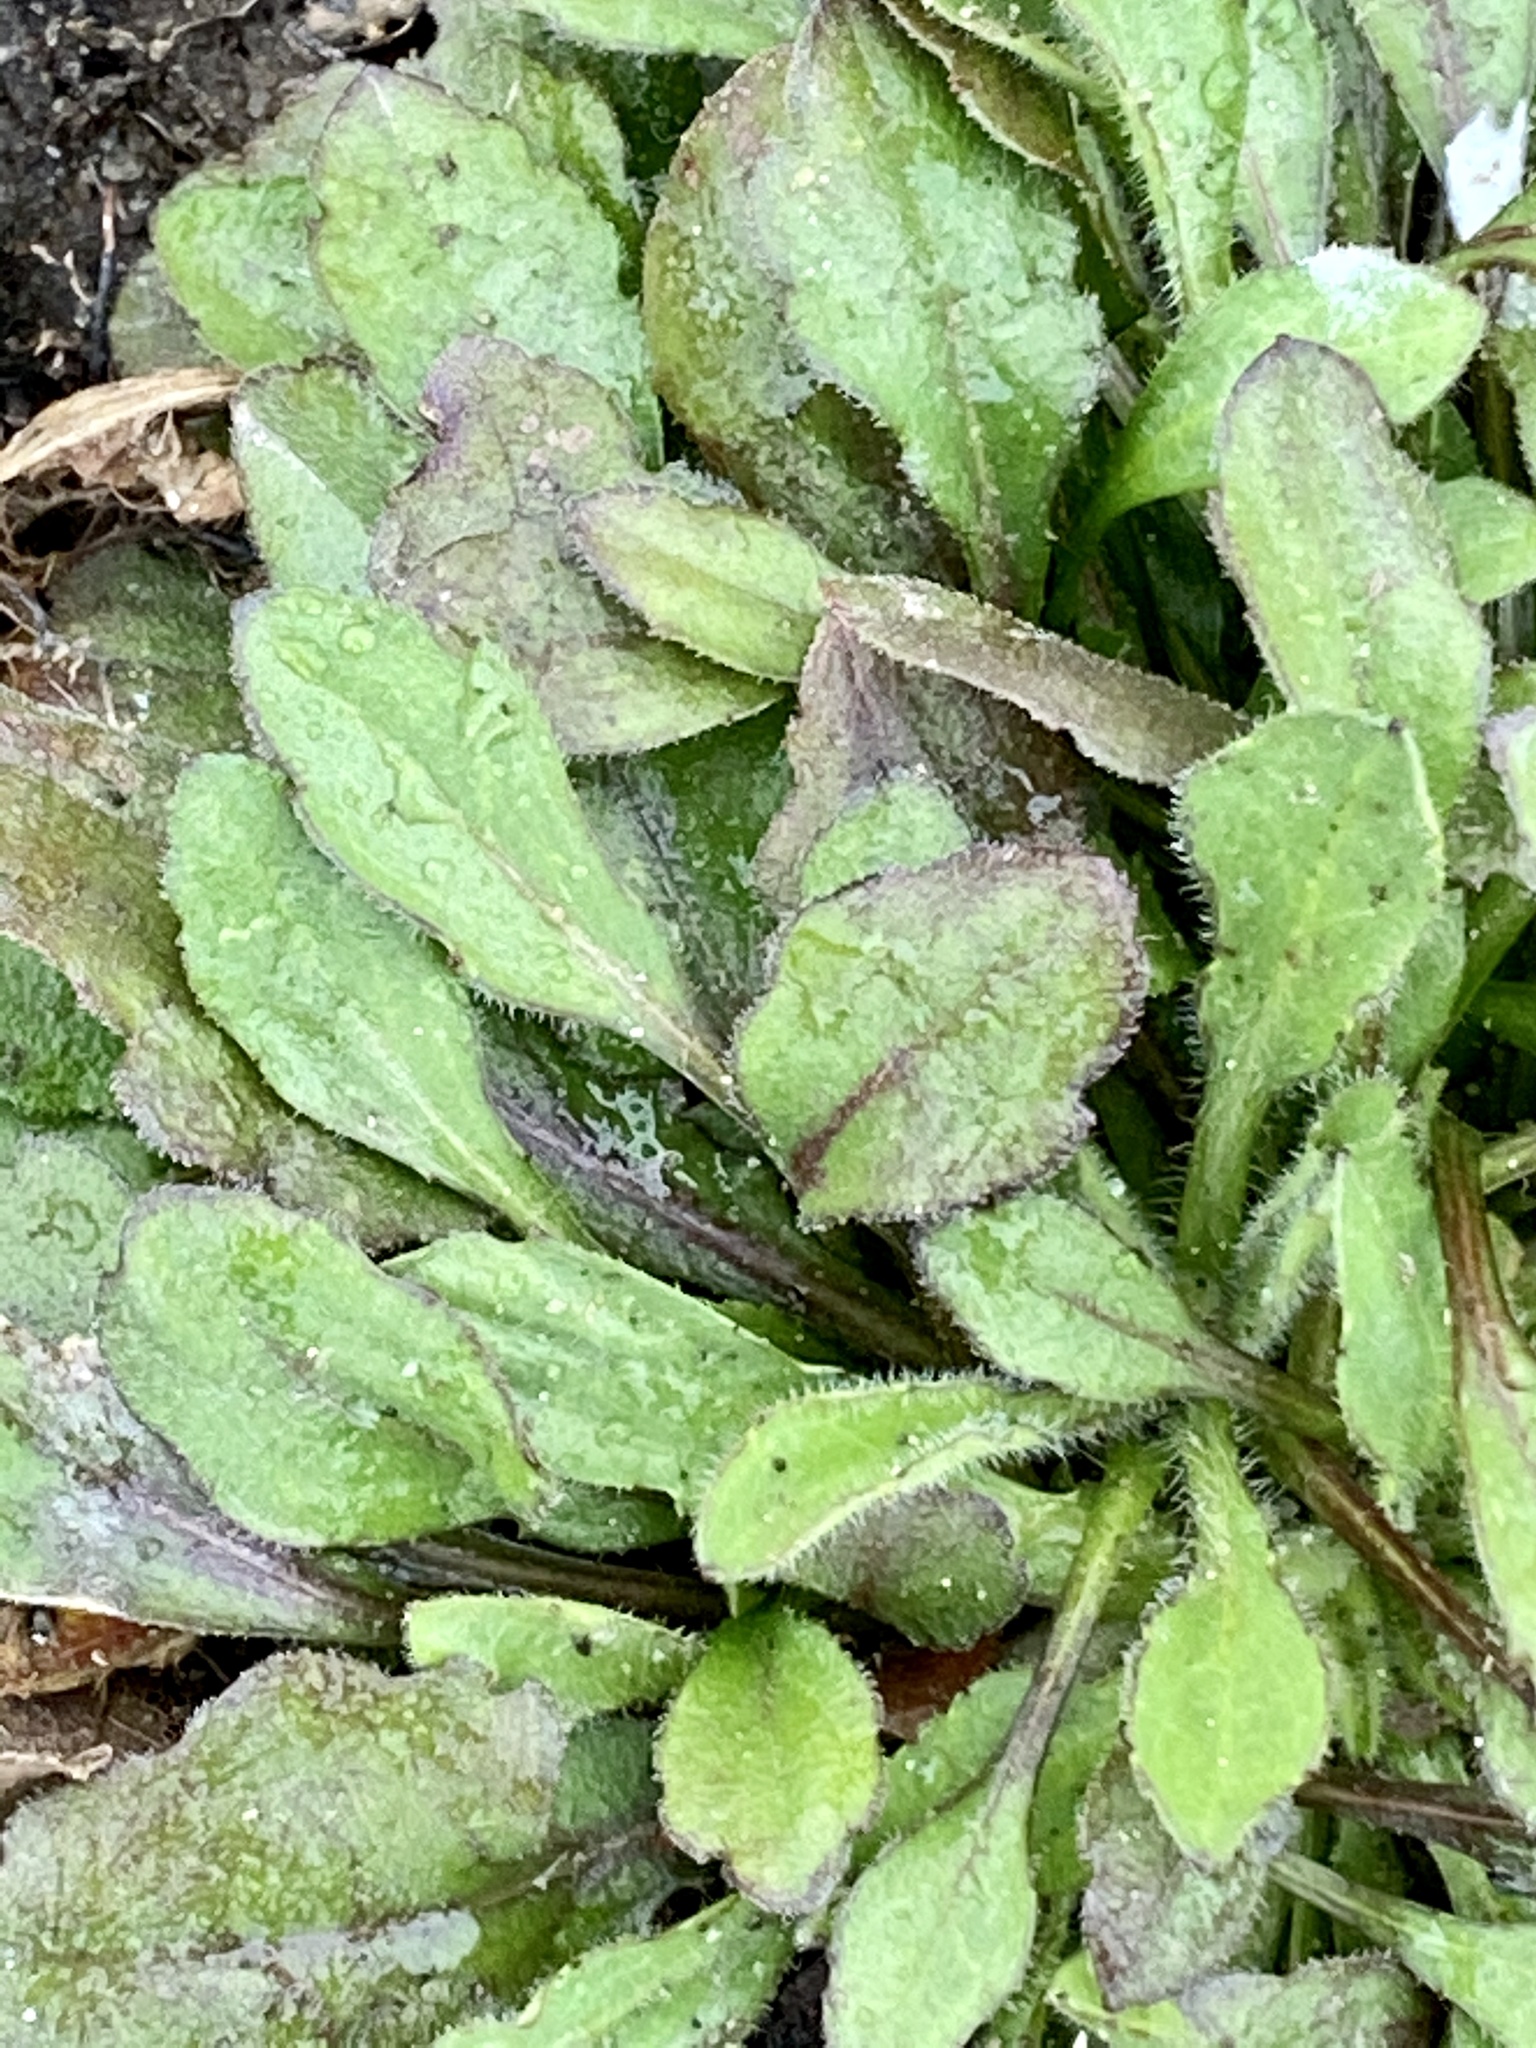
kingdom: Plantae
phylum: Tracheophyta
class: Magnoliopsida
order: Asterales
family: Asteraceae
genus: Erigeron
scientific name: Erigeron canadensis
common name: Canadian fleabane
